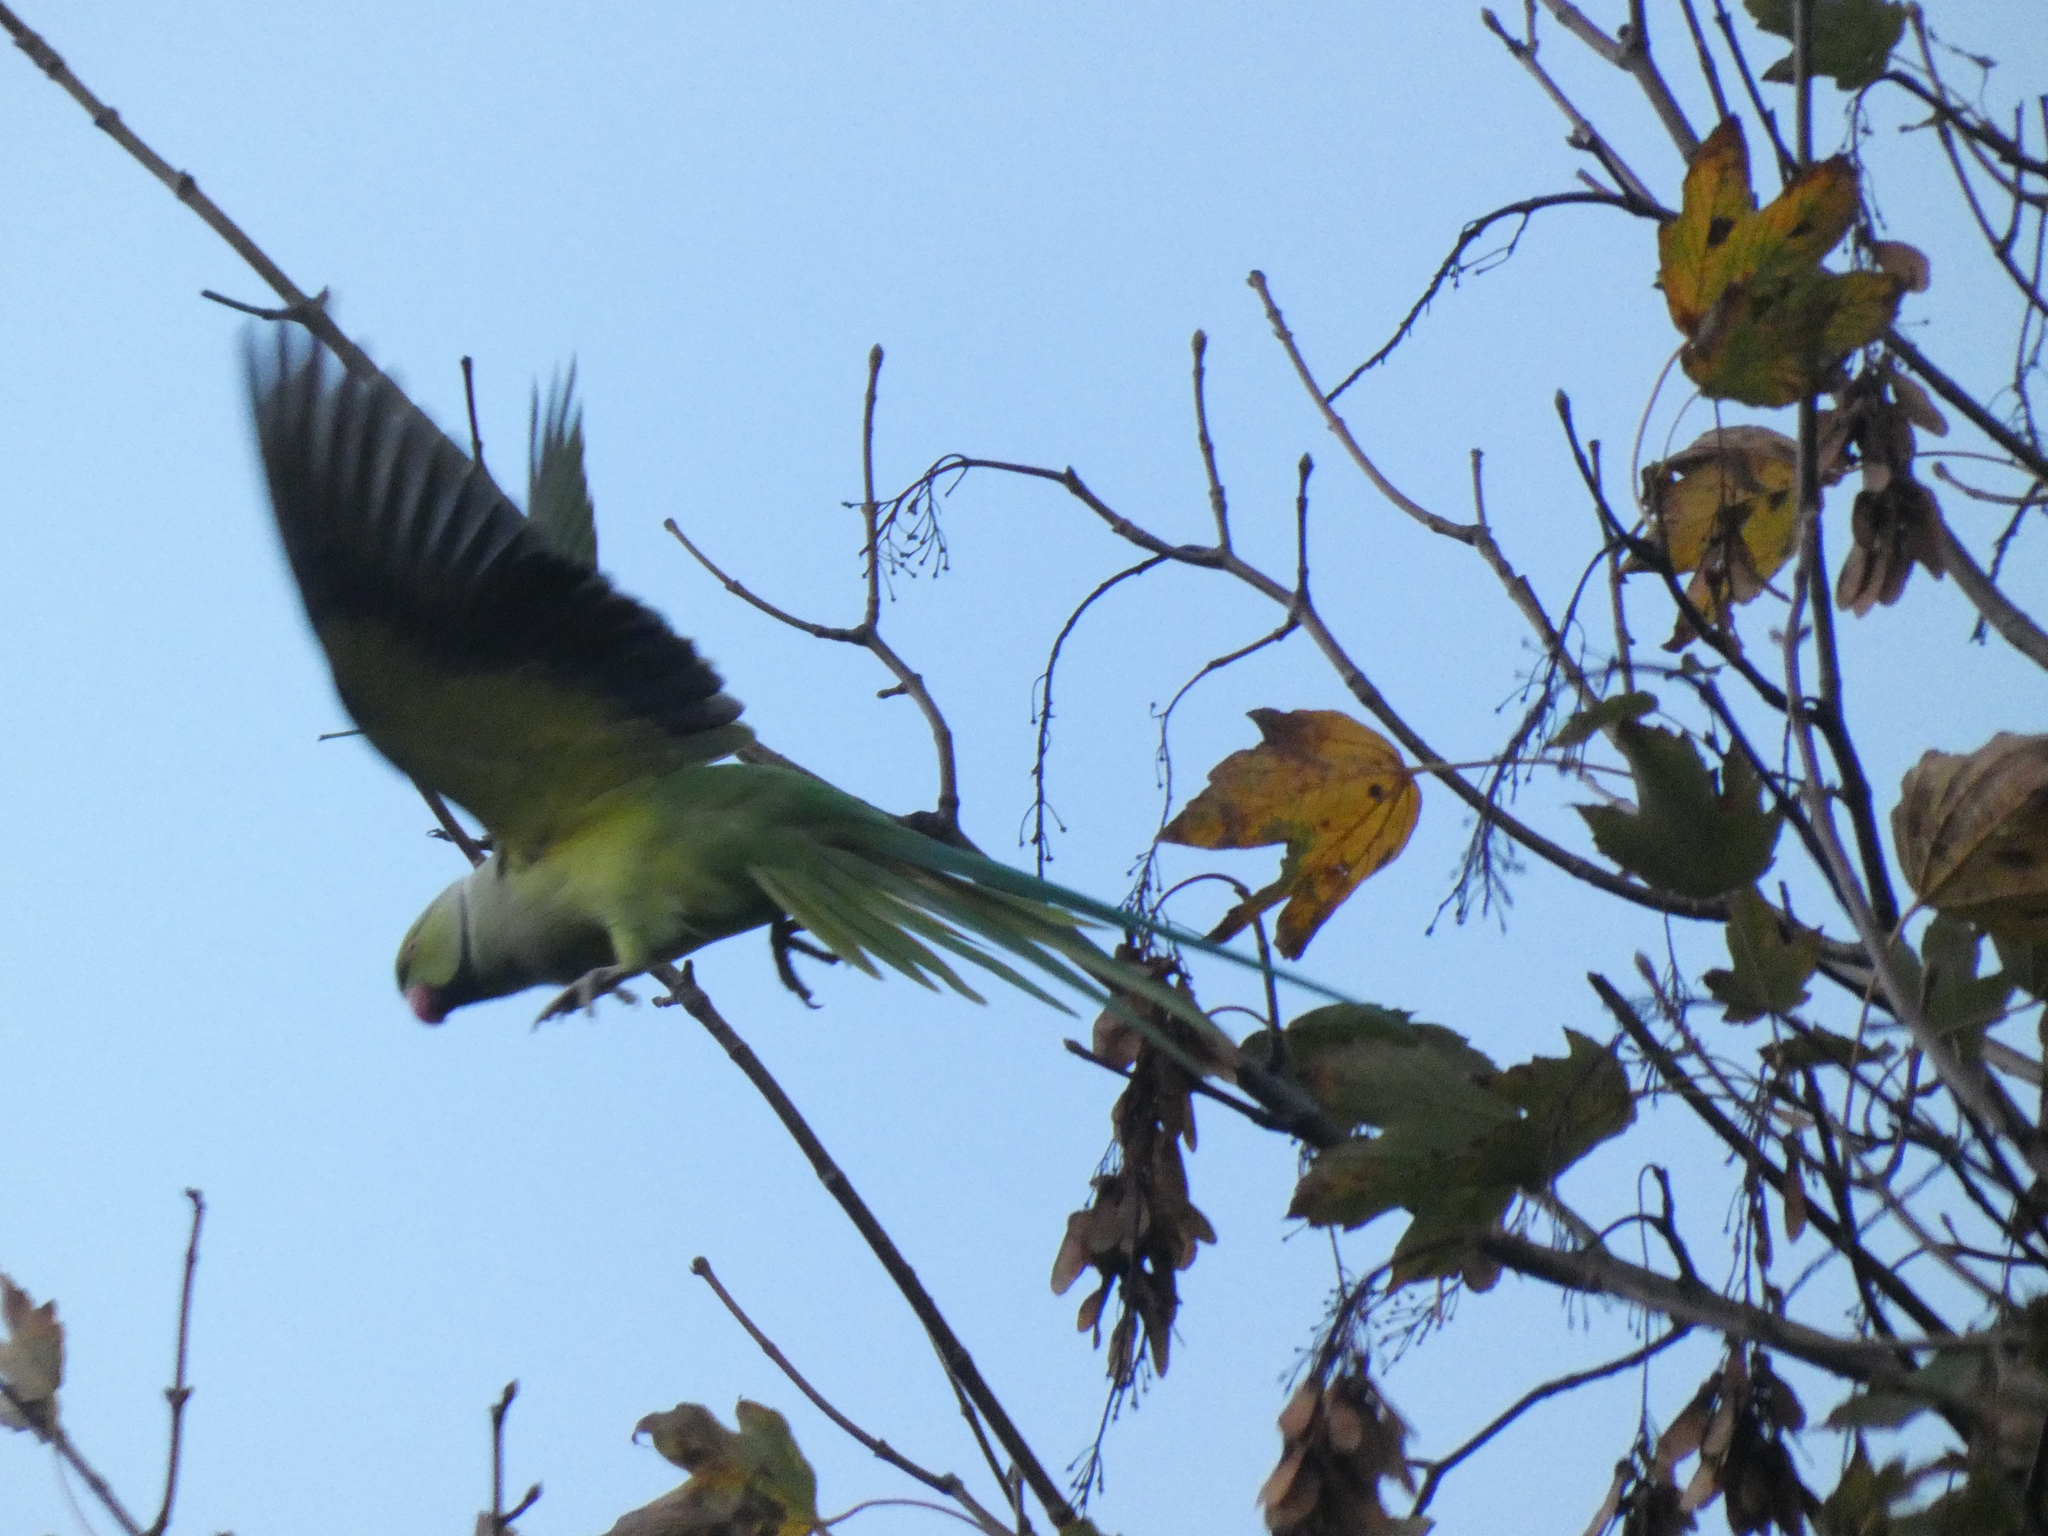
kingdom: Animalia
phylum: Chordata
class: Aves
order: Psittaciformes
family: Psittacidae
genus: Psittacula
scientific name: Psittacula krameri
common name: Rose-ringed parakeet
